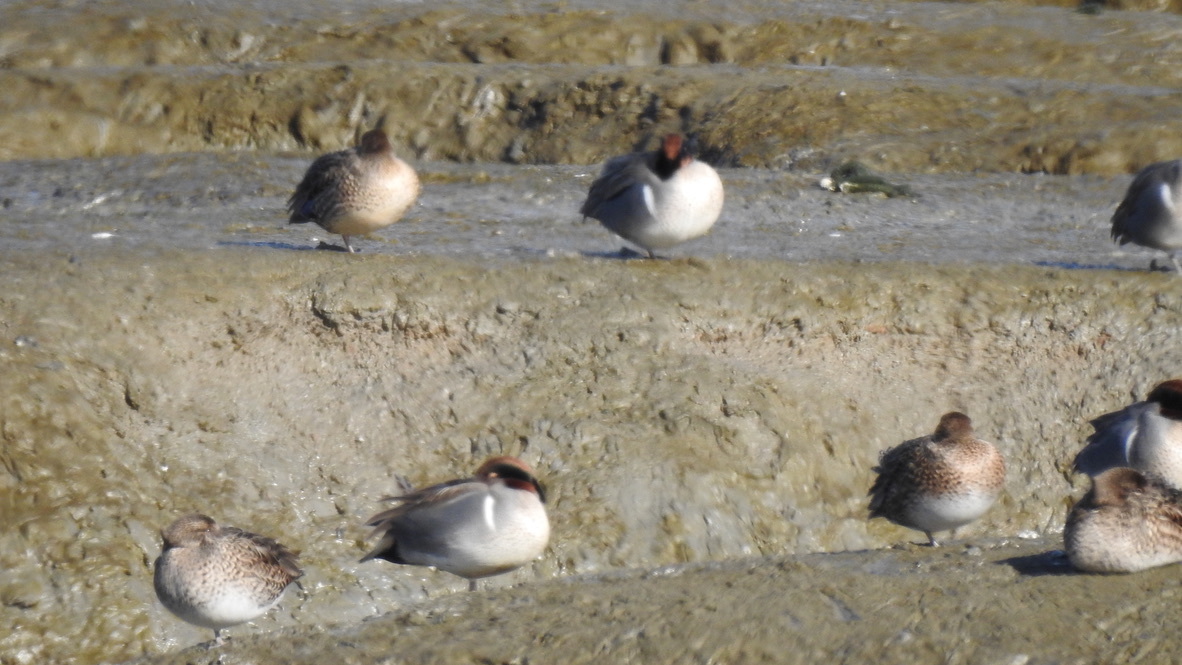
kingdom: Animalia
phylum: Chordata
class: Aves
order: Anseriformes
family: Anatidae
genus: Anas
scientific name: Anas crecca
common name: Eurasian teal
